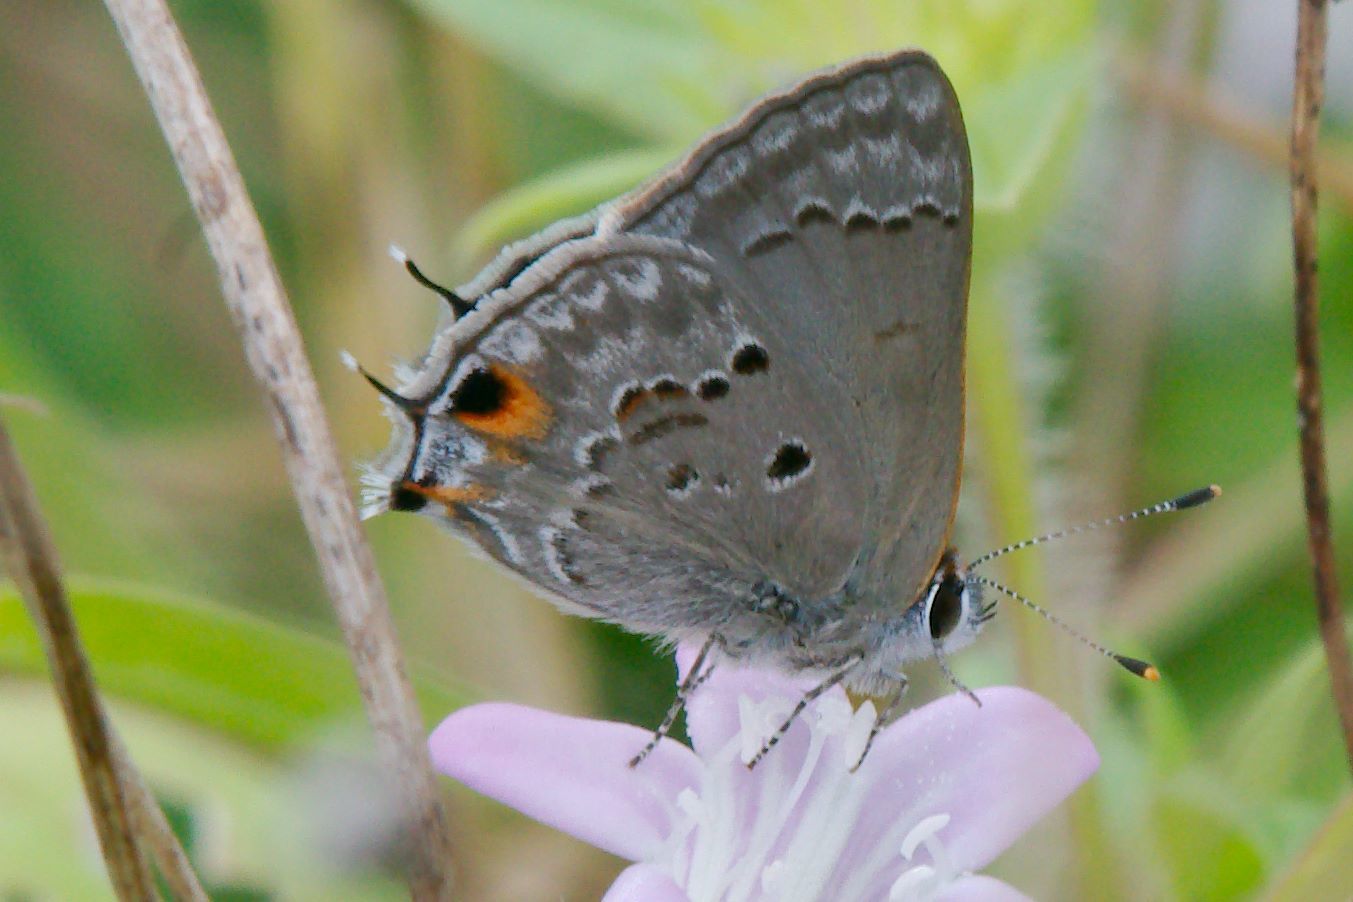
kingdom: Animalia
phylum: Arthropoda
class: Insecta
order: Lepidoptera
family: Lycaenidae
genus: Callicista
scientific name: Callicista columella
